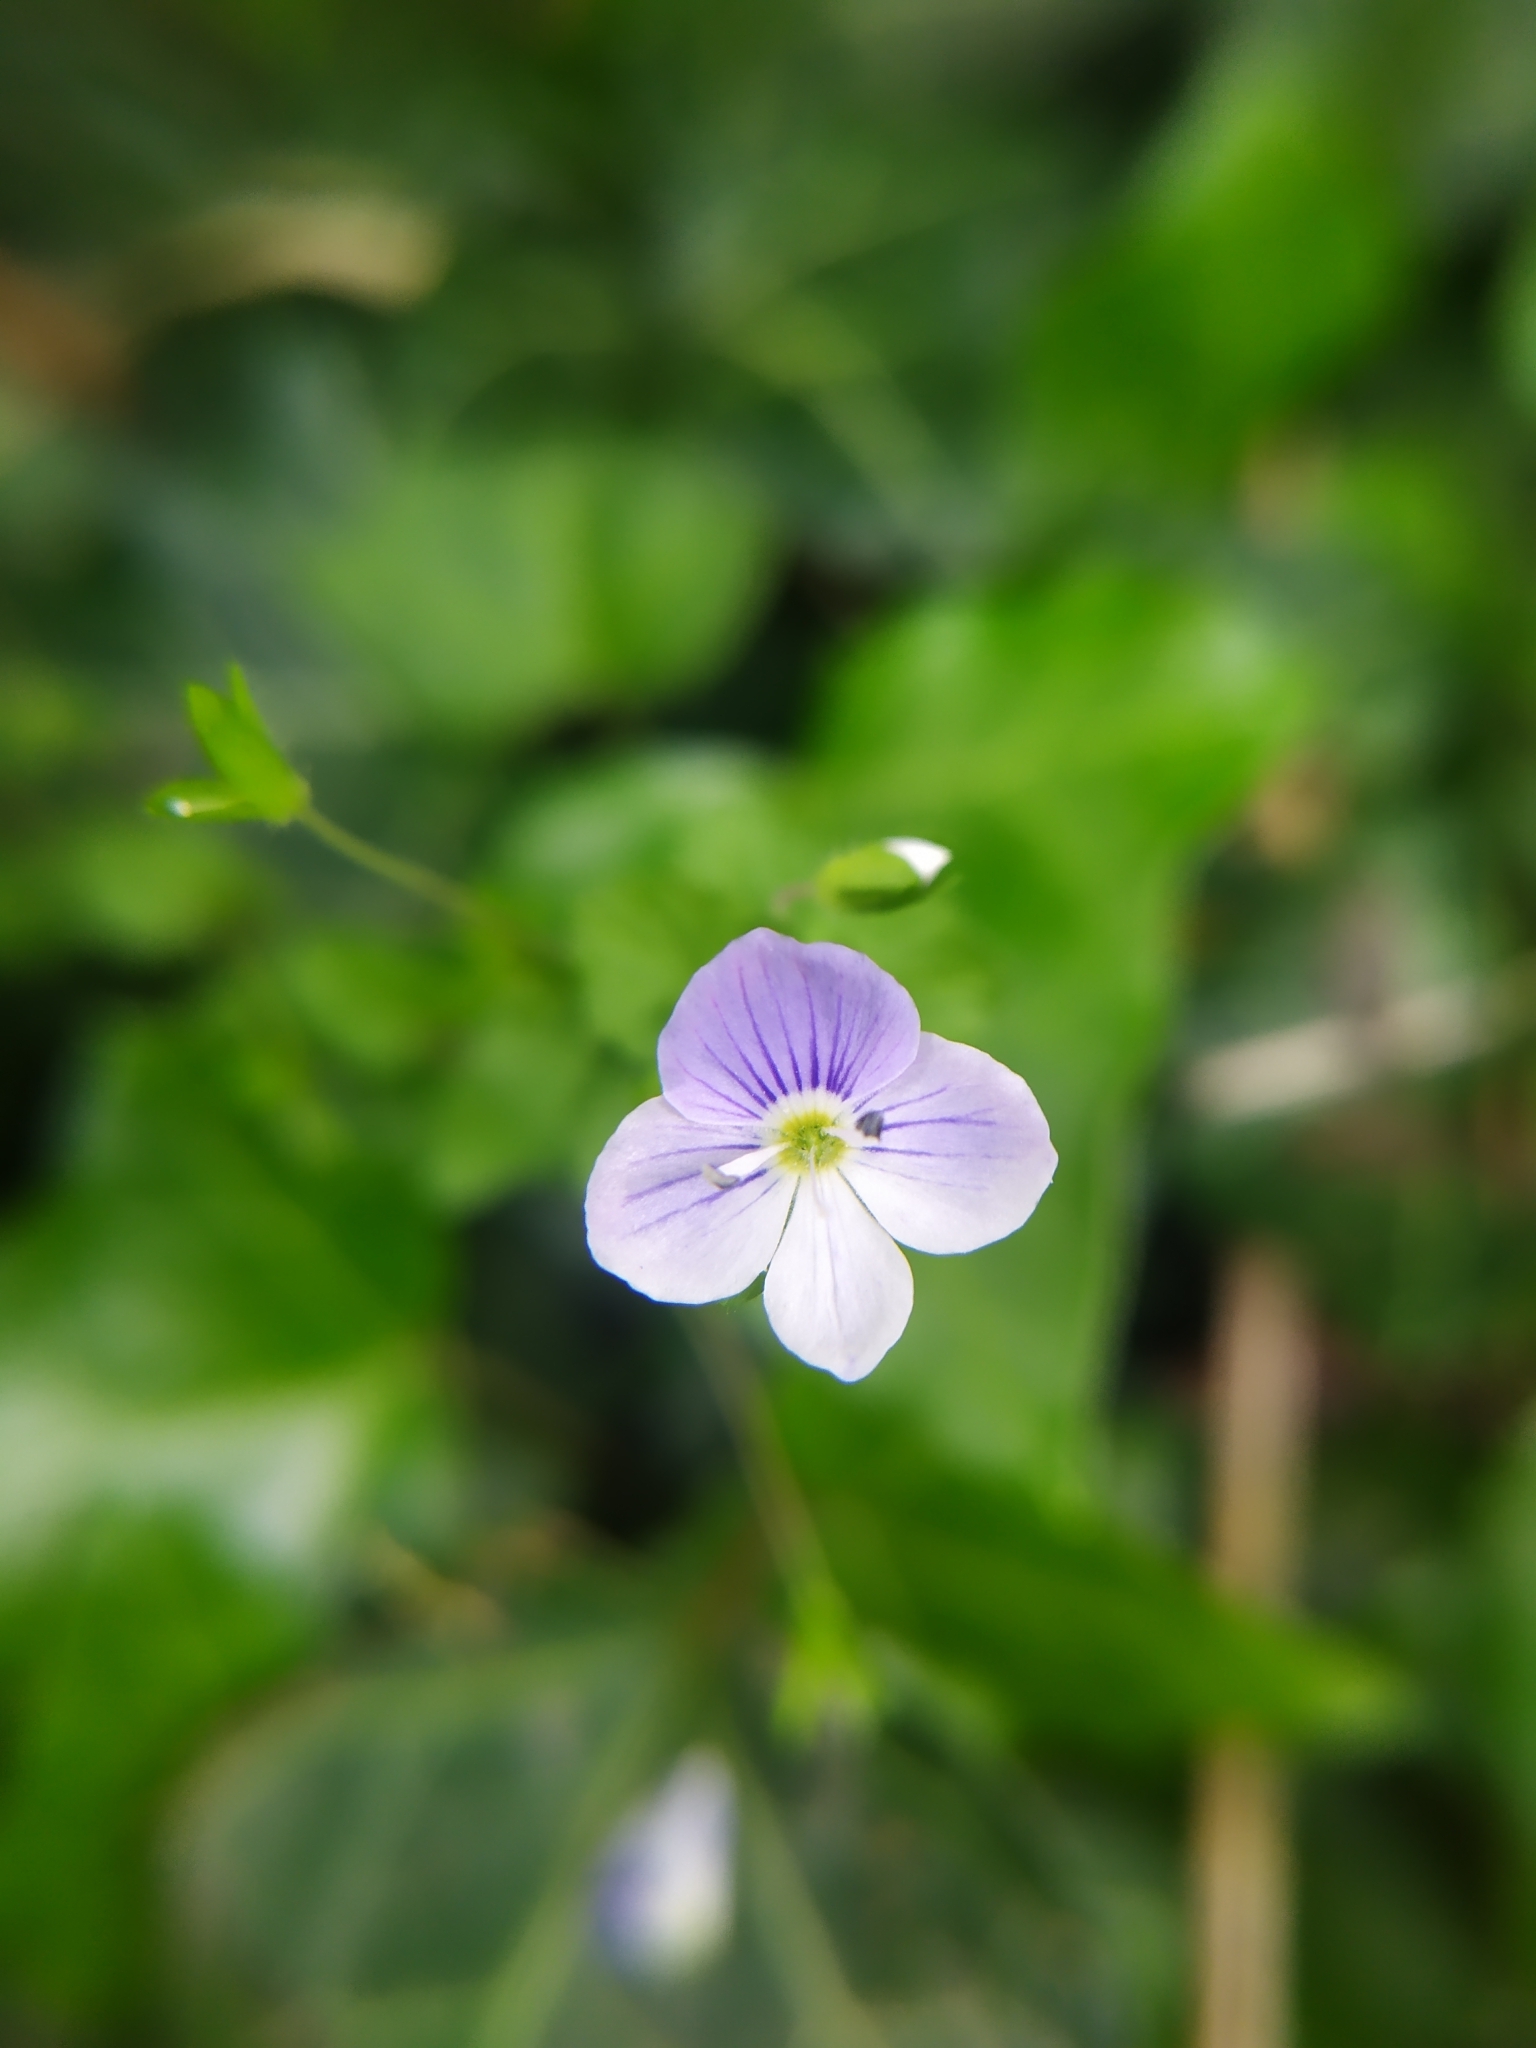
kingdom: Plantae
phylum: Tracheophyta
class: Magnoliopsida
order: Lamiales
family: Plantaginaceae
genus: Veronica
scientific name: Veronica filiformis
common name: Slender speedwell
